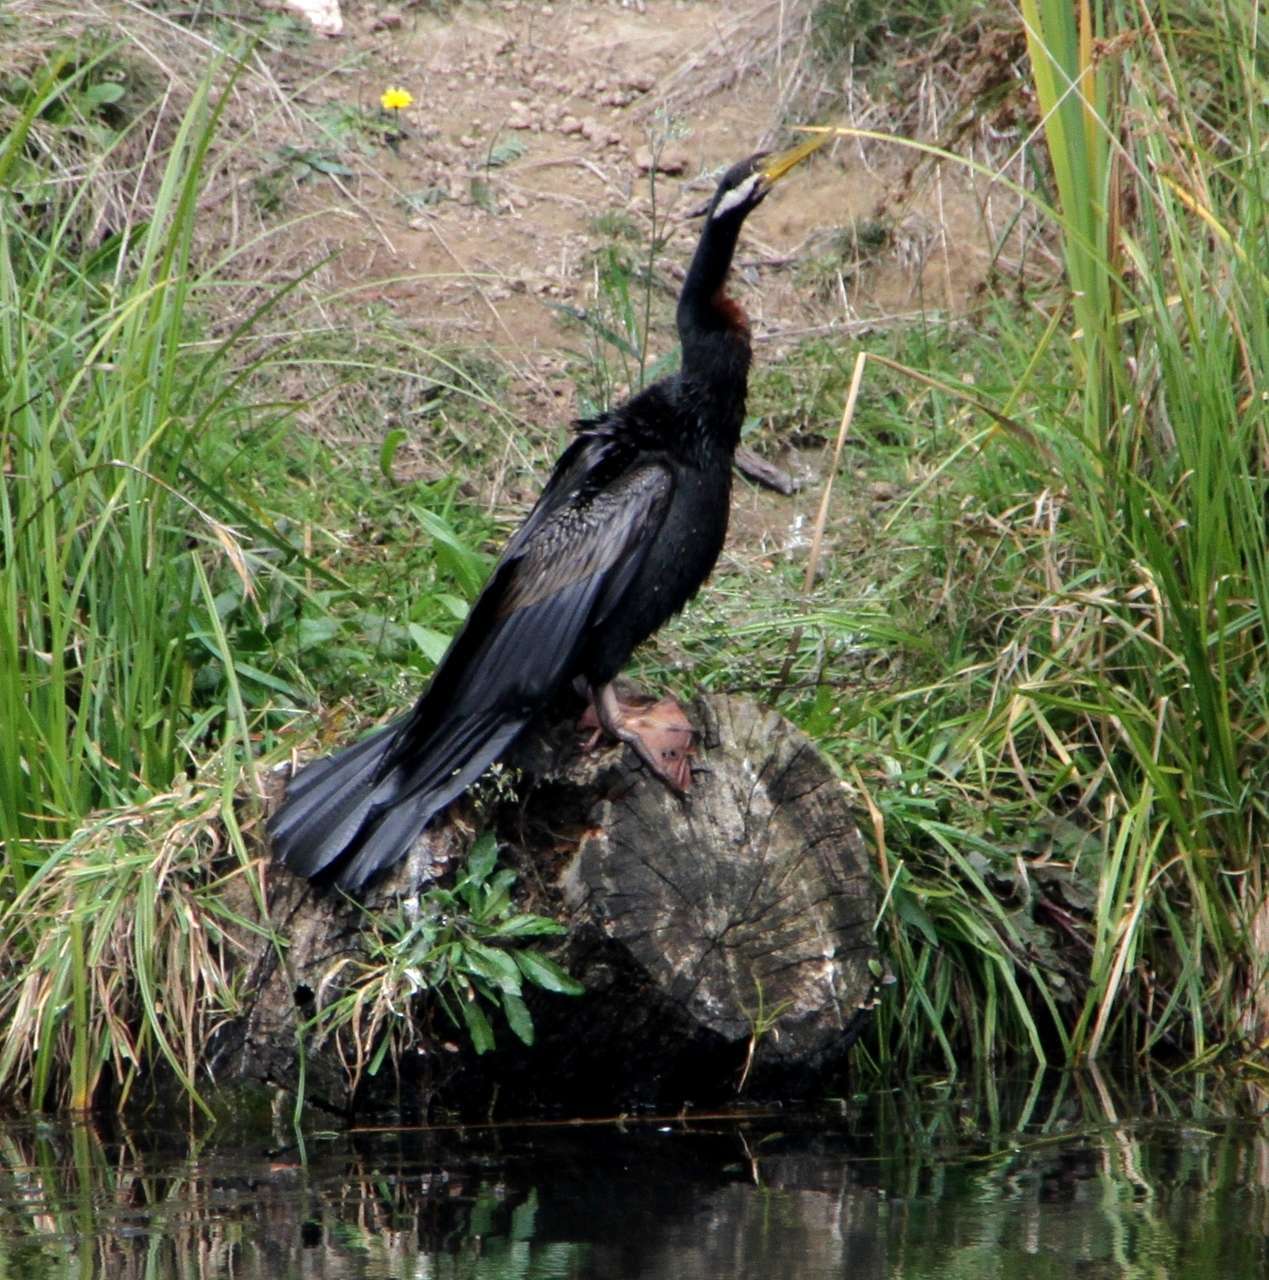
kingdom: Animalia
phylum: Chordata
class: Aves
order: Suliformes
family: Anhingidae
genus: Anhinga
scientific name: Anhinga novaehollandiae
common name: Australasian darter
